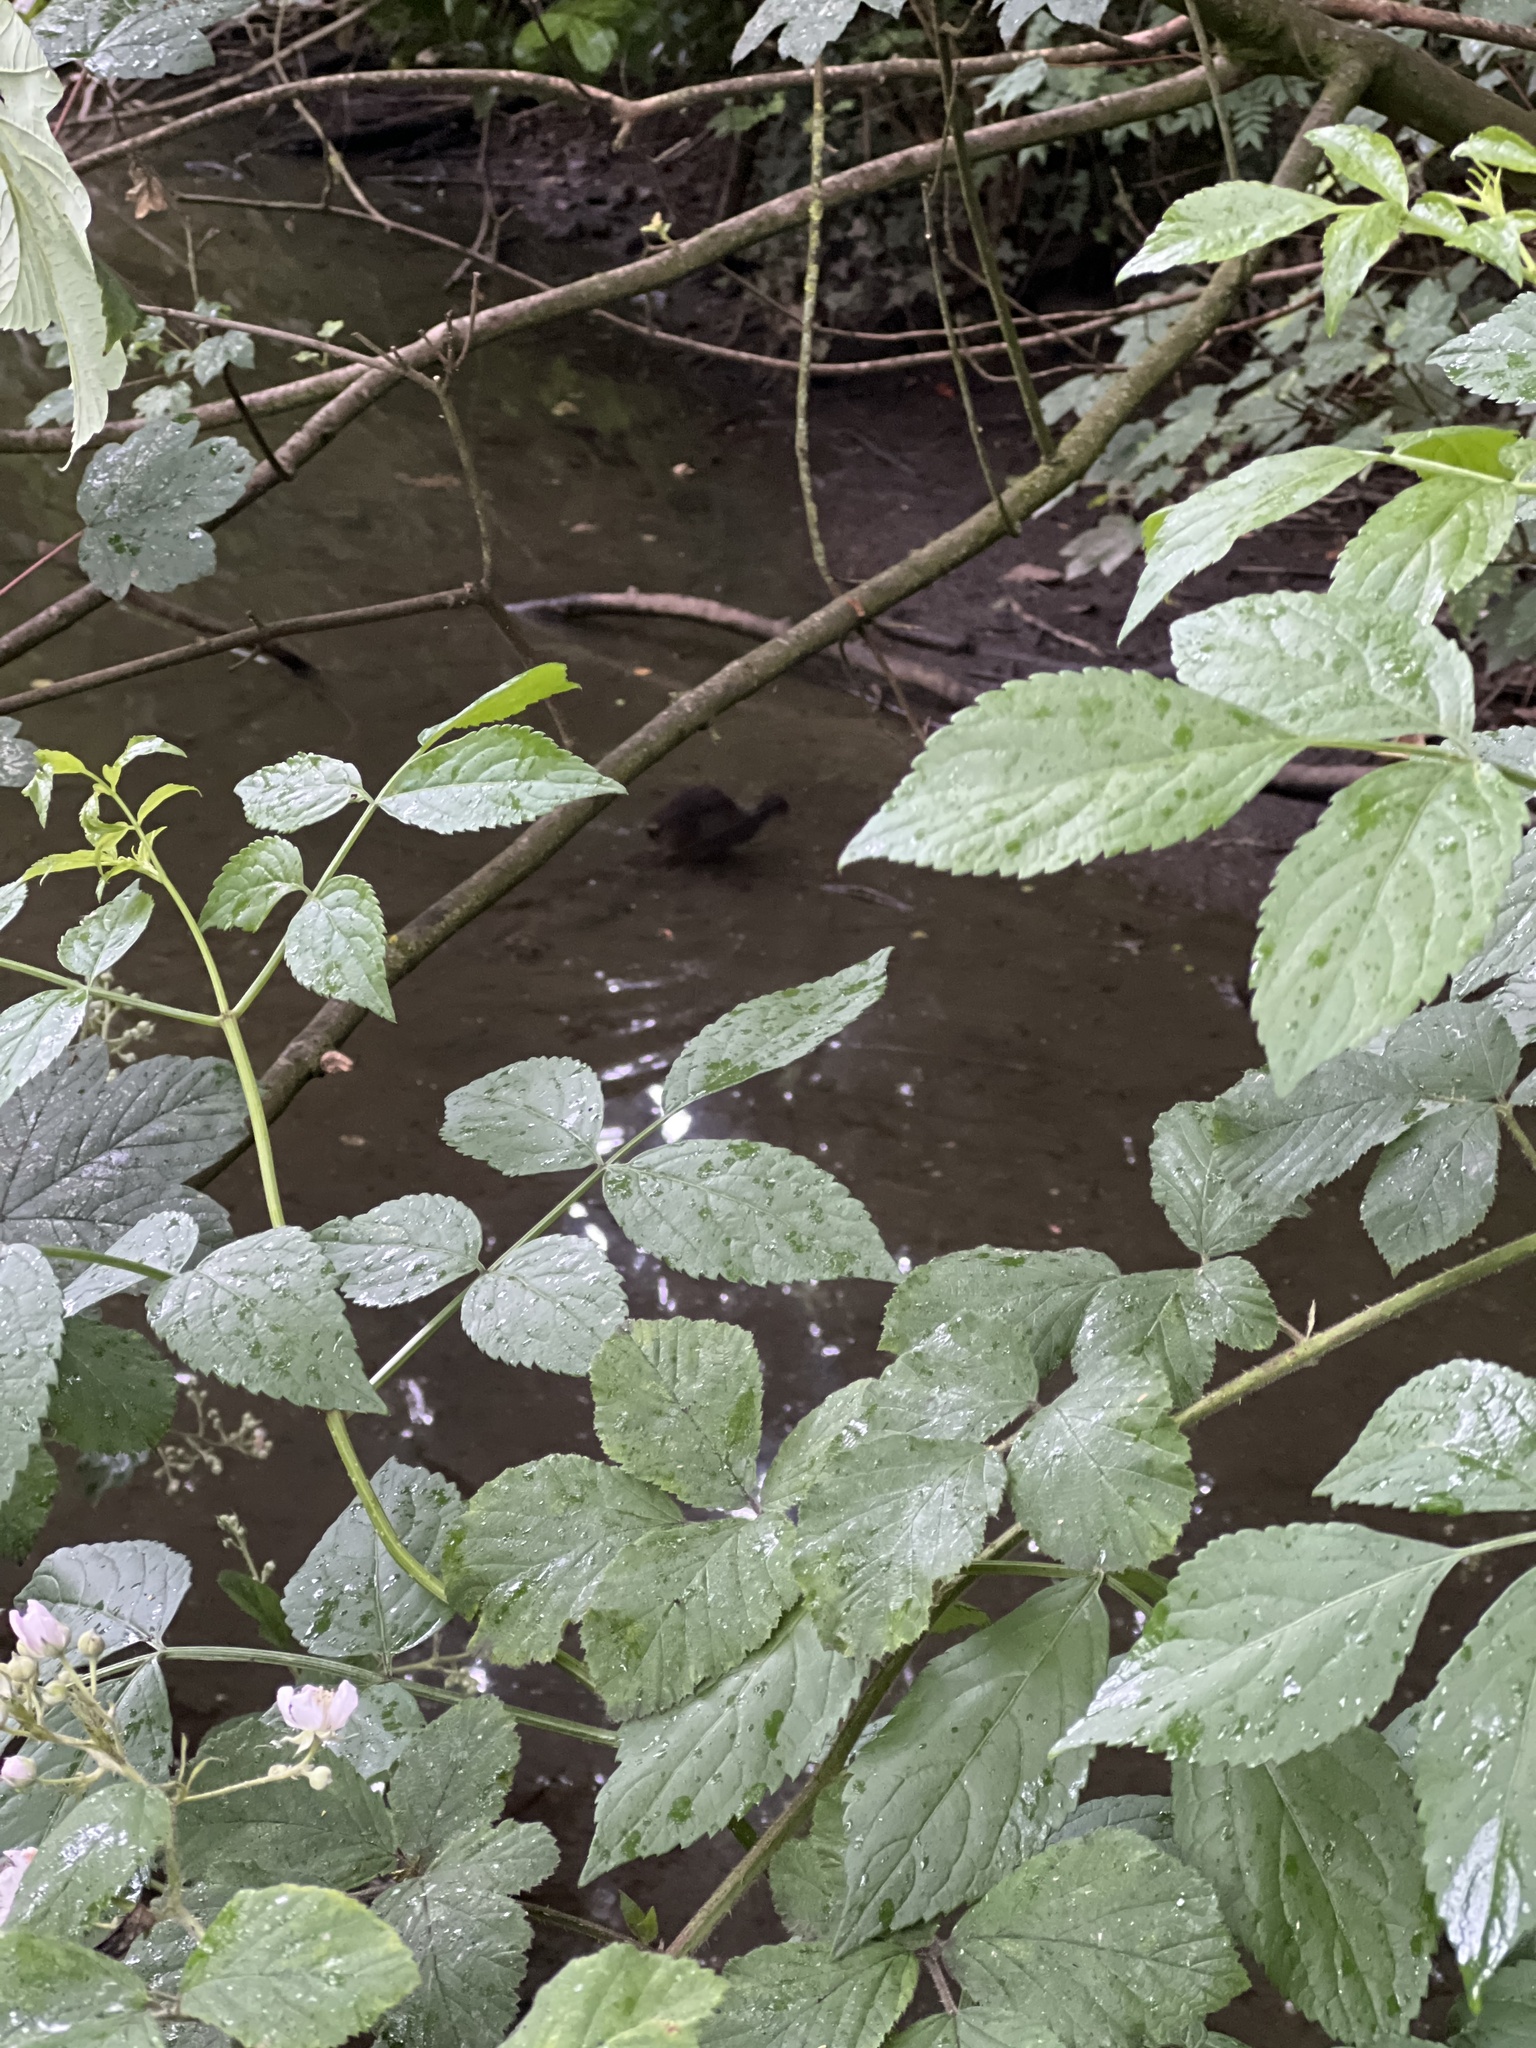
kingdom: Animalia
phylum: Chordata
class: Aves
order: Gruiformes
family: Rallidae
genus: Gallinula
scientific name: Gallinula chloropus
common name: Common moorhen
